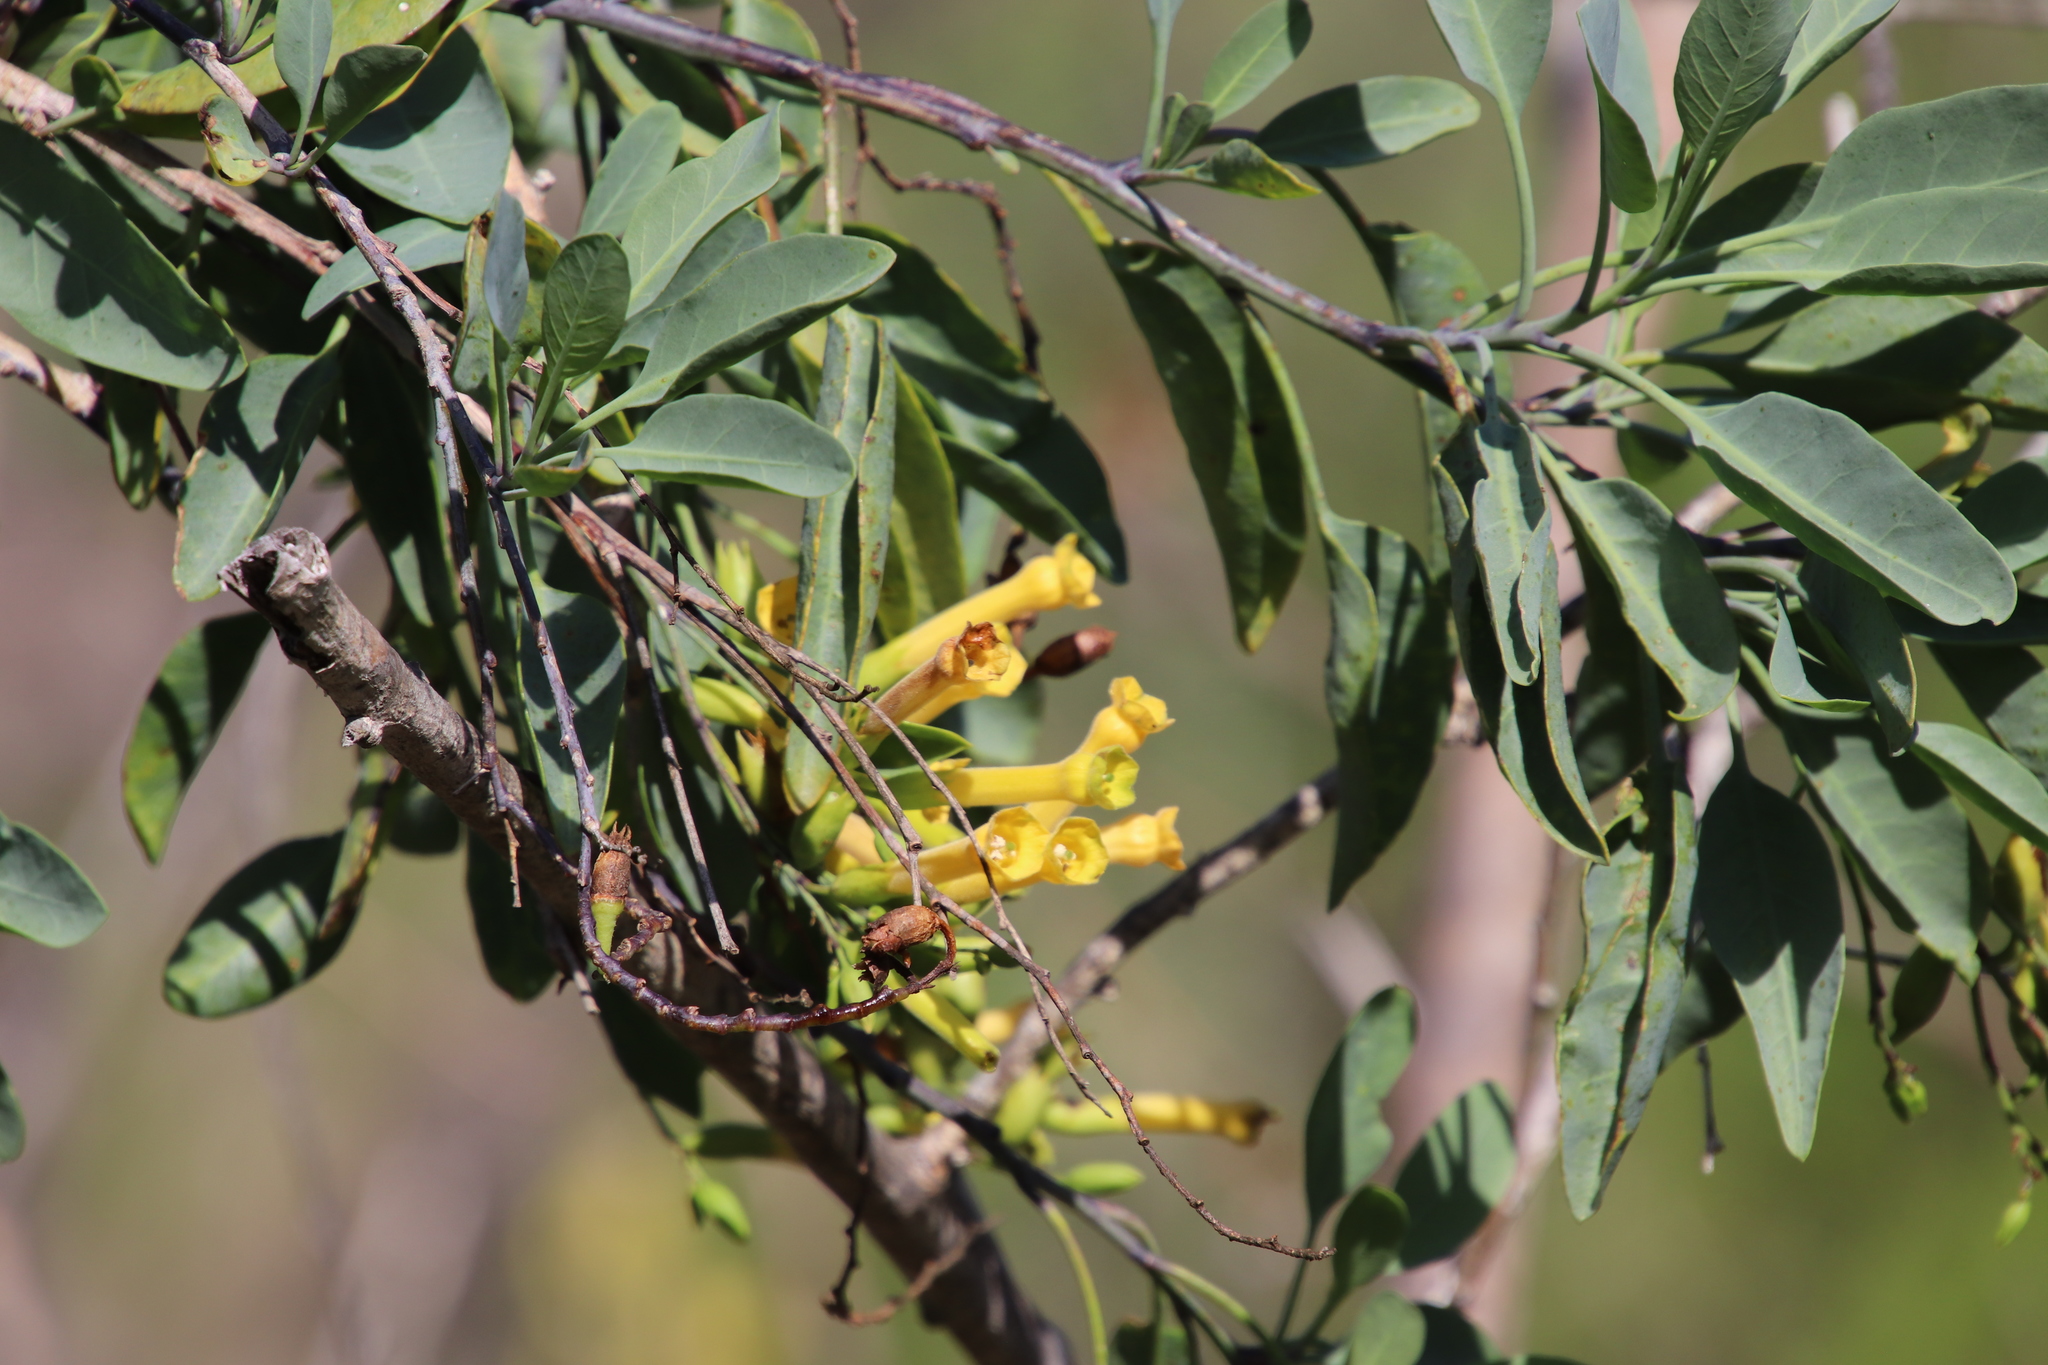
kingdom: Plantae
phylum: Tracheophyta
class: Magnoliopsida
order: Solanales
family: Solanaceae
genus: Nicotiana
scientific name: Nicotiana glauca
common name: Tree tobacco
